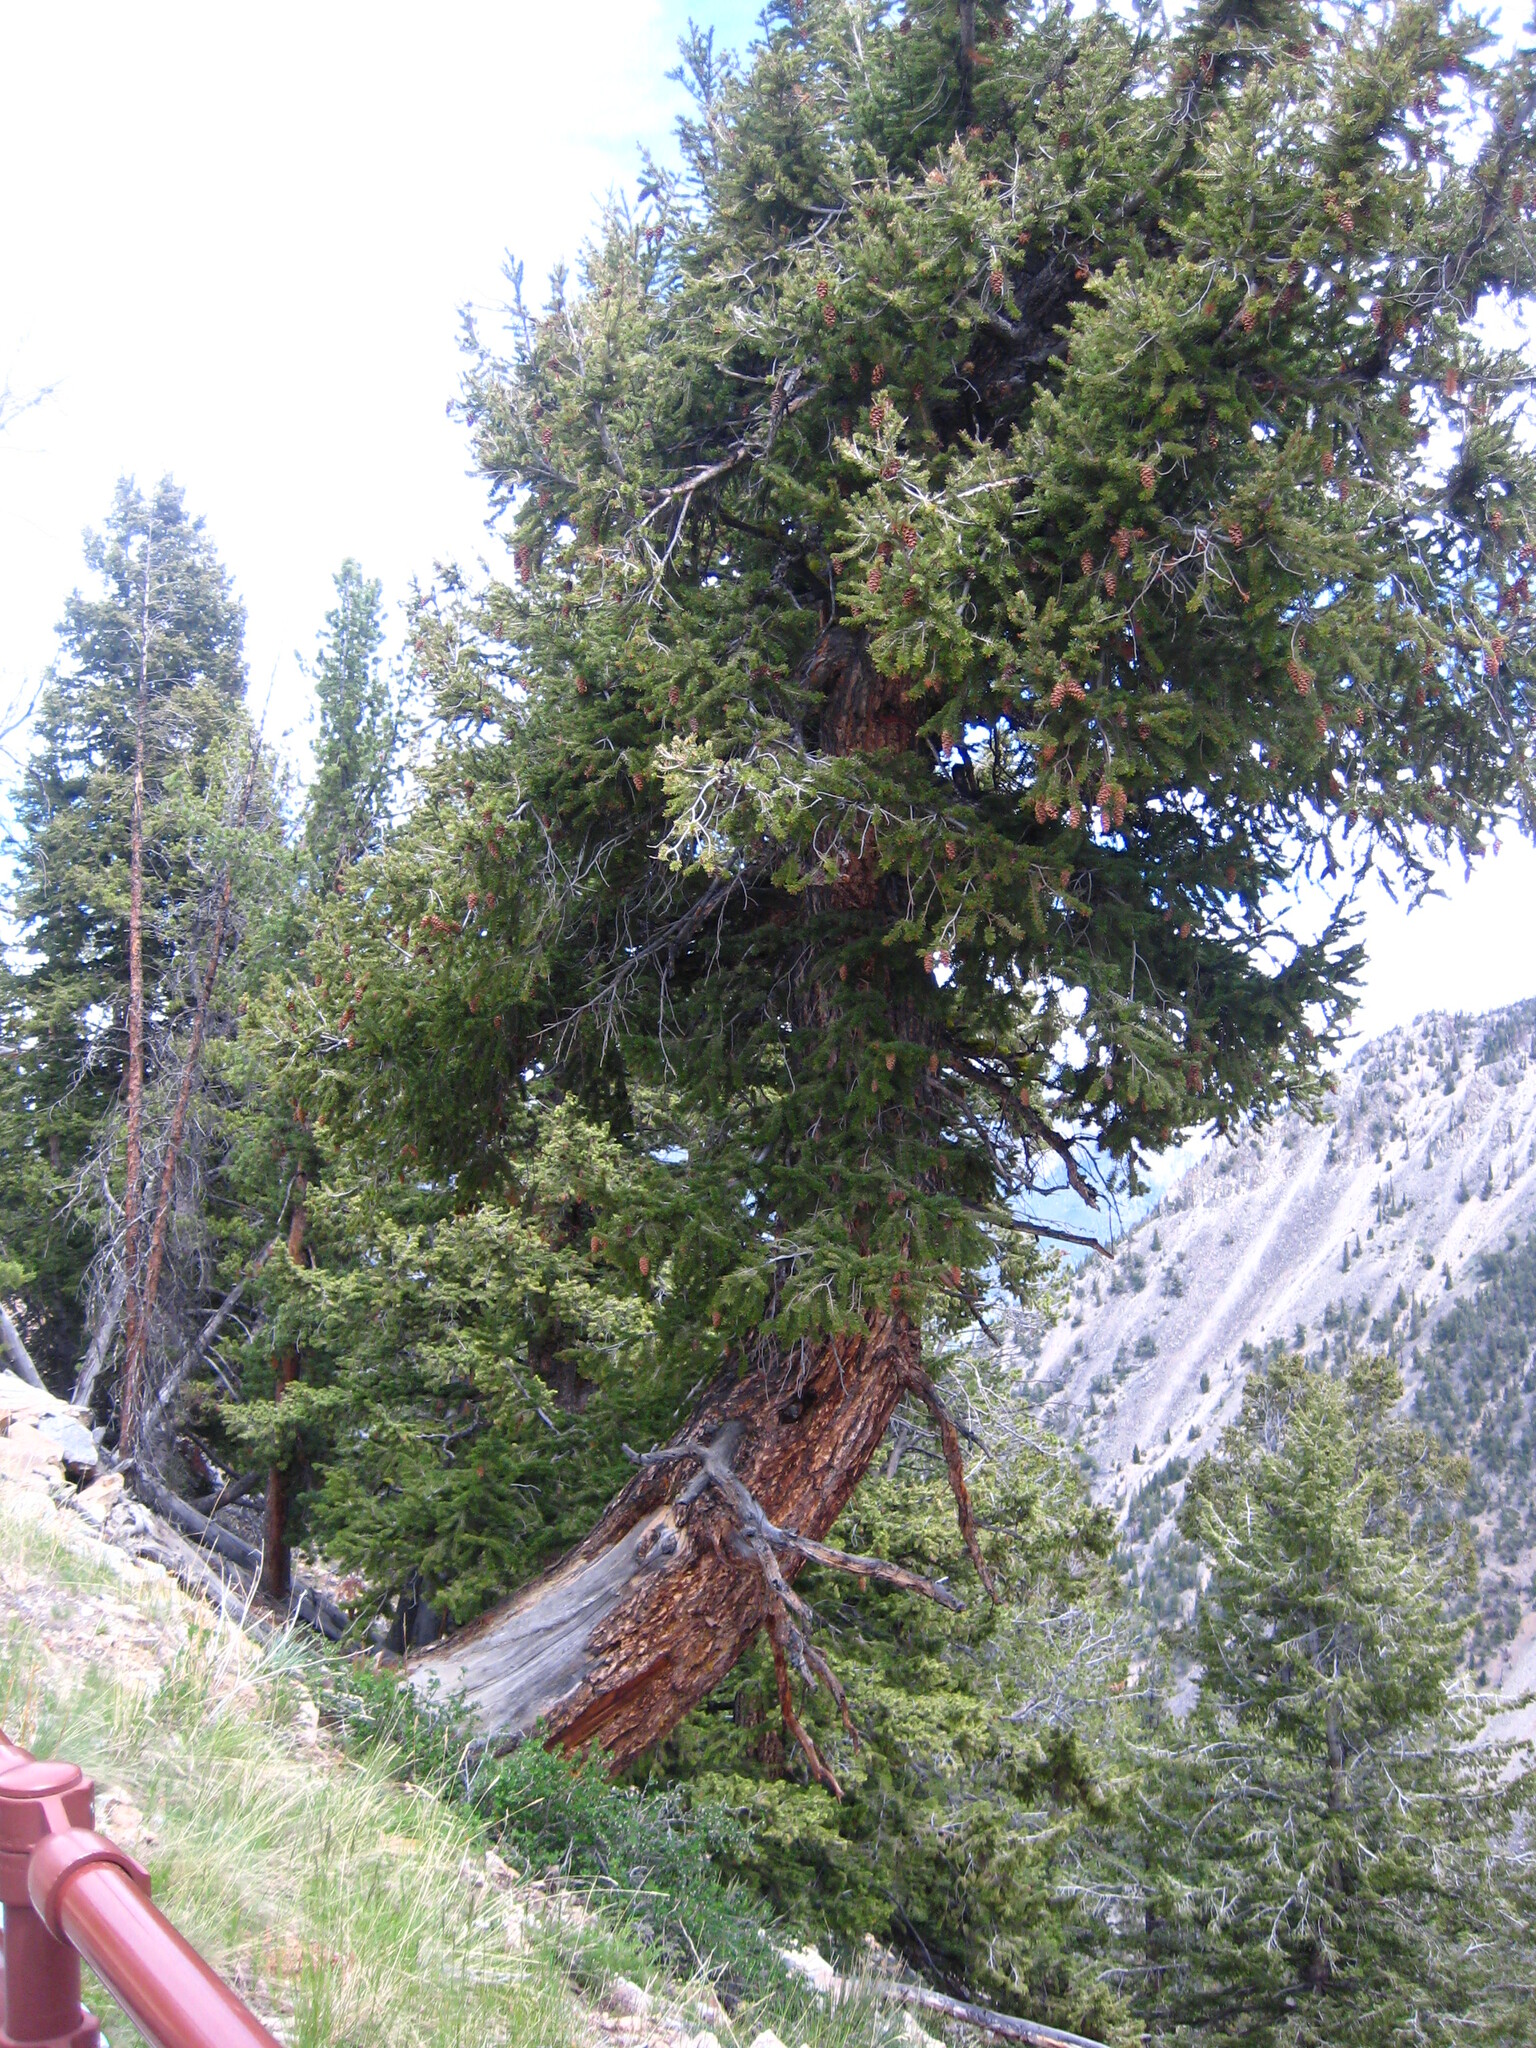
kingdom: Plantae
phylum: Tracheophyta
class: Pinopsida
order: Pinales
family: Pinaceae
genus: Pseudotsuga
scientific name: Pseudotsuga menziesii
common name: Douglas fir
